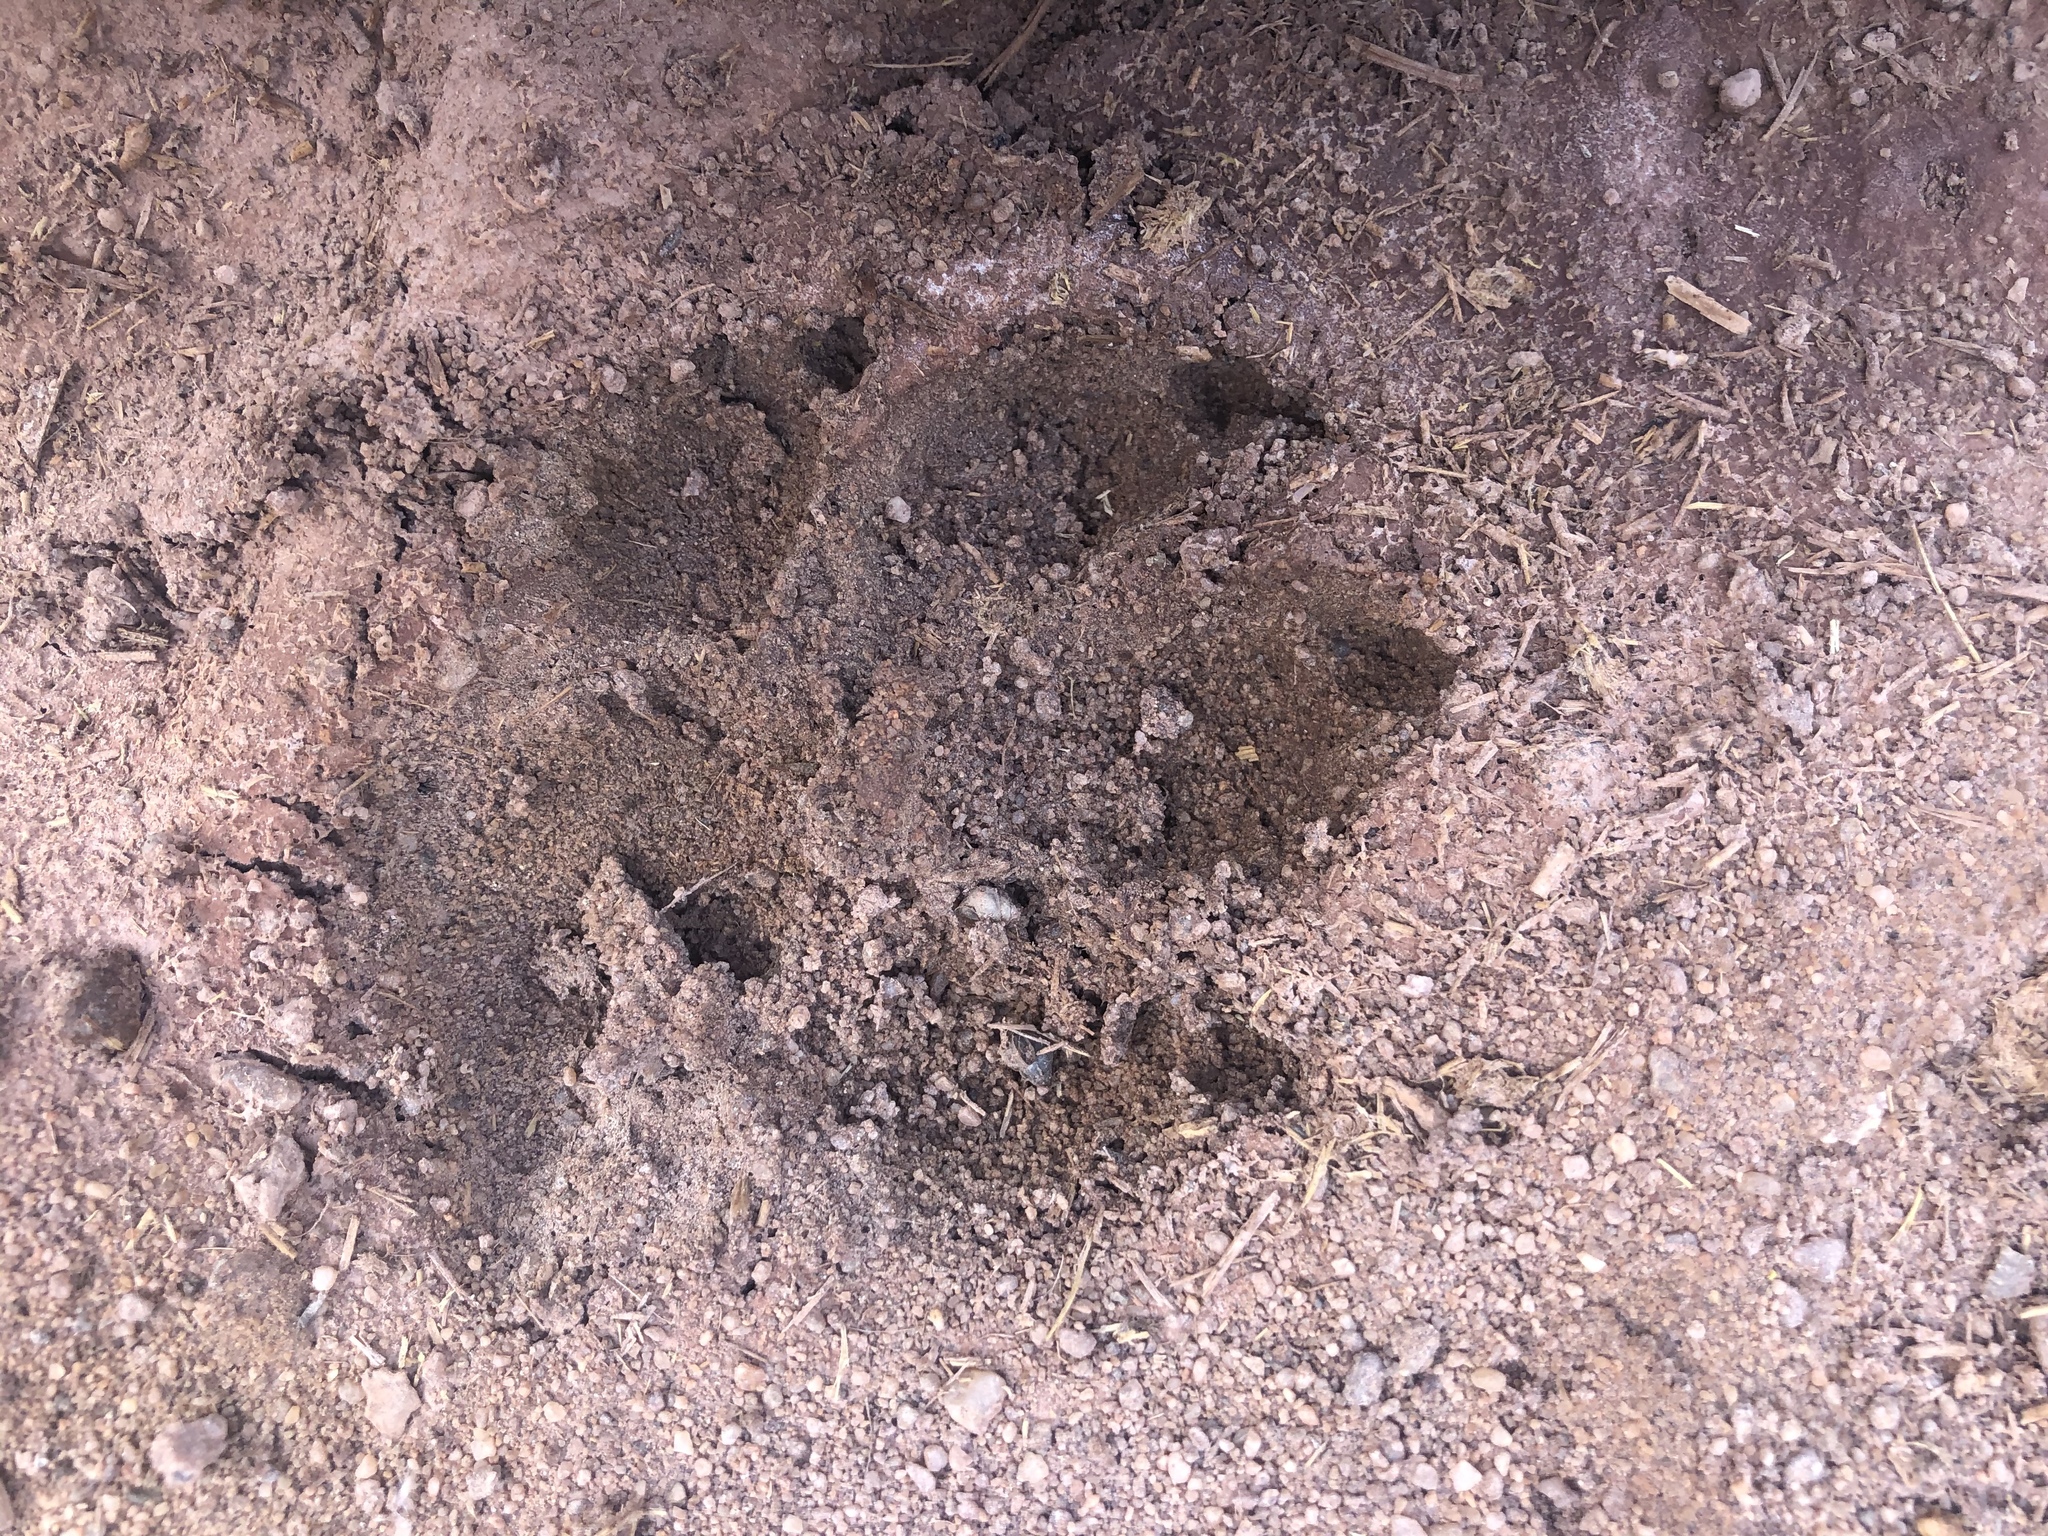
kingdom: Animalia
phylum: Chordata
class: Mammalia
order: Carnivora
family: Canidae
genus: Canis
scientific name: Canis lupus
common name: Gray wolf
